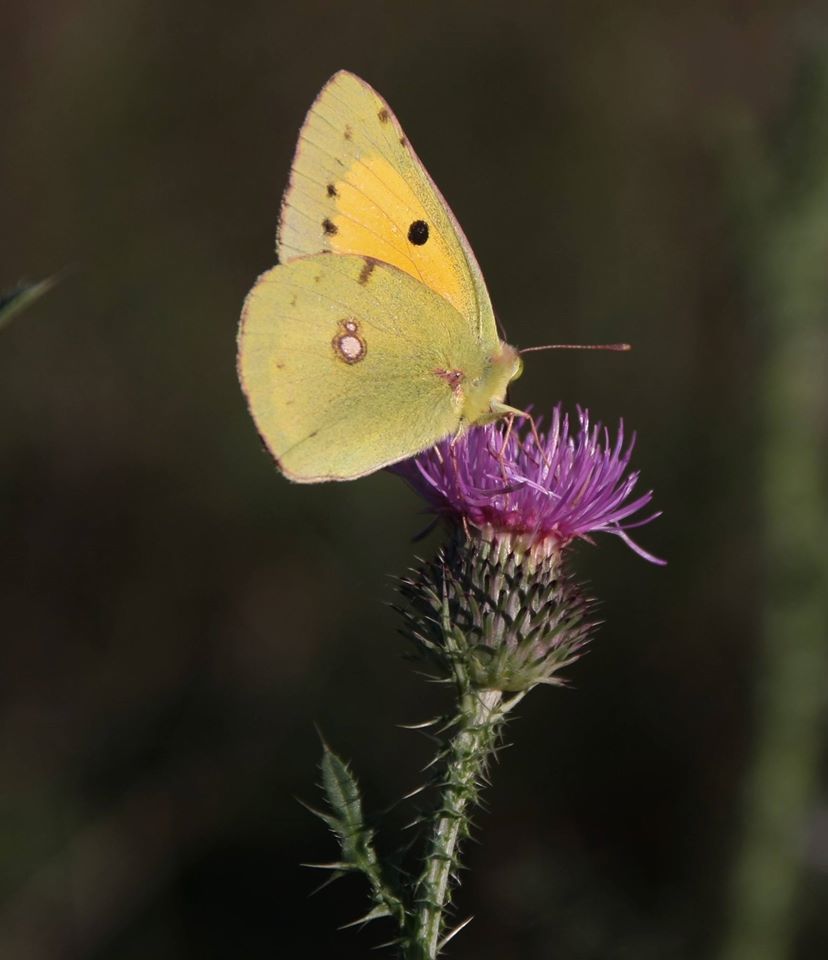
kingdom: Animalia
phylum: Arthropoda
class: Insecta
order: Lepidoptera
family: Pieridae
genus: Colias
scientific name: Colias croceus
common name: Clouded yellow
